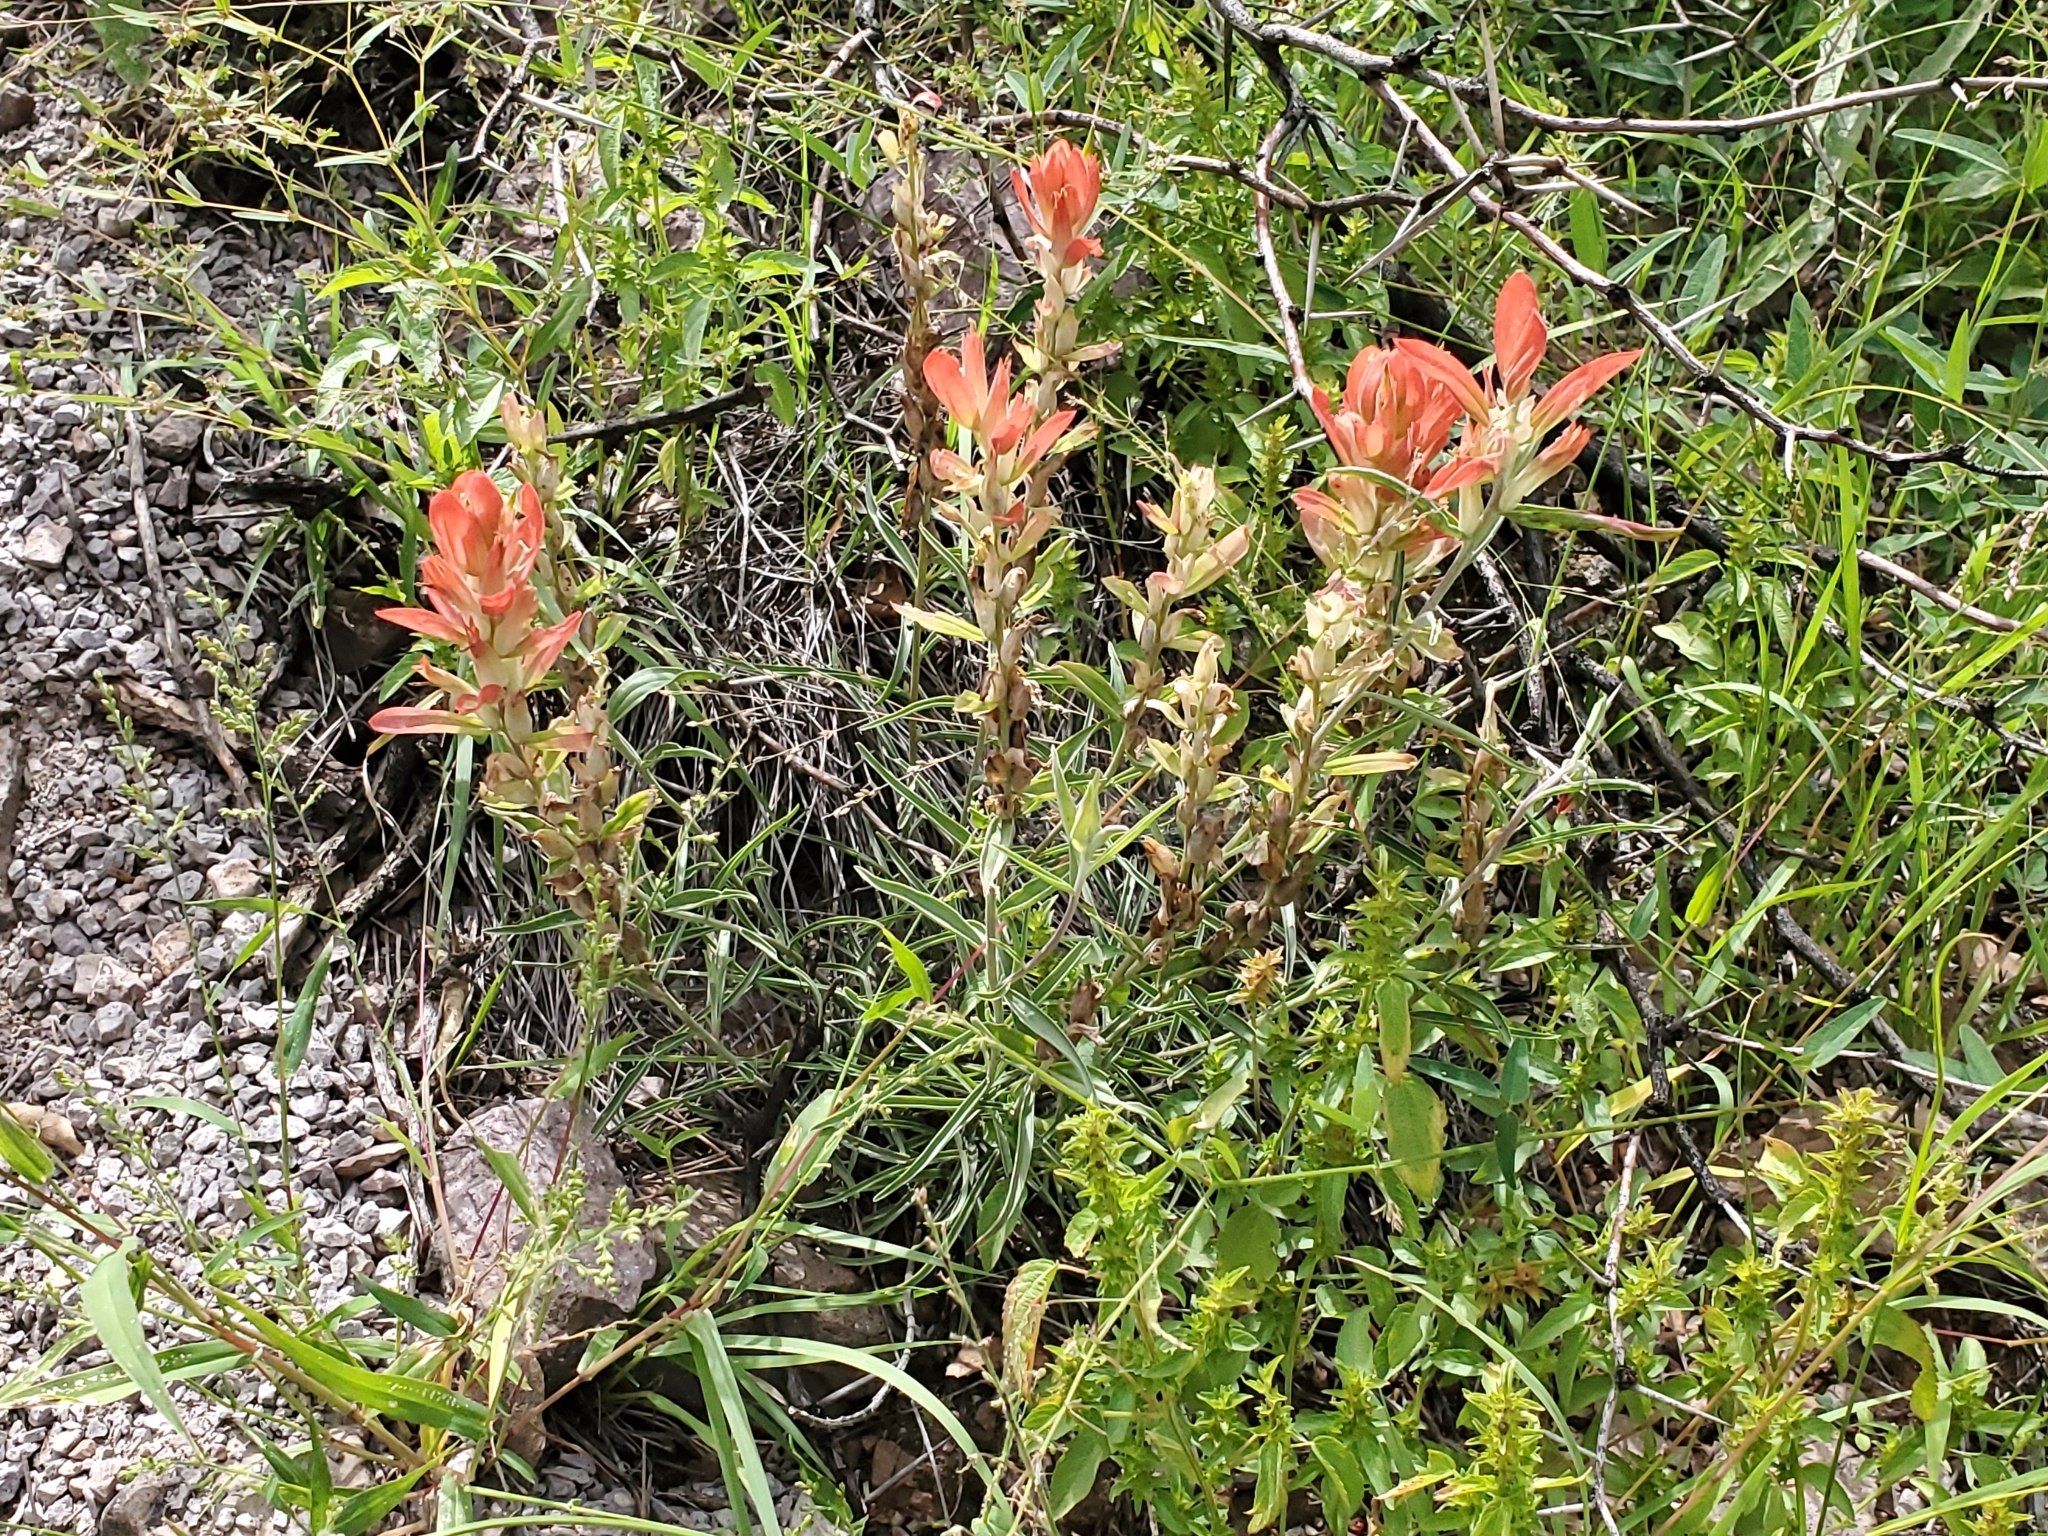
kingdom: Plantae
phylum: Tracheophyta
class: Magnoliopsida
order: Lamiales
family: Orobanchaceae
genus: Castilleja
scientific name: Castilleja integra
